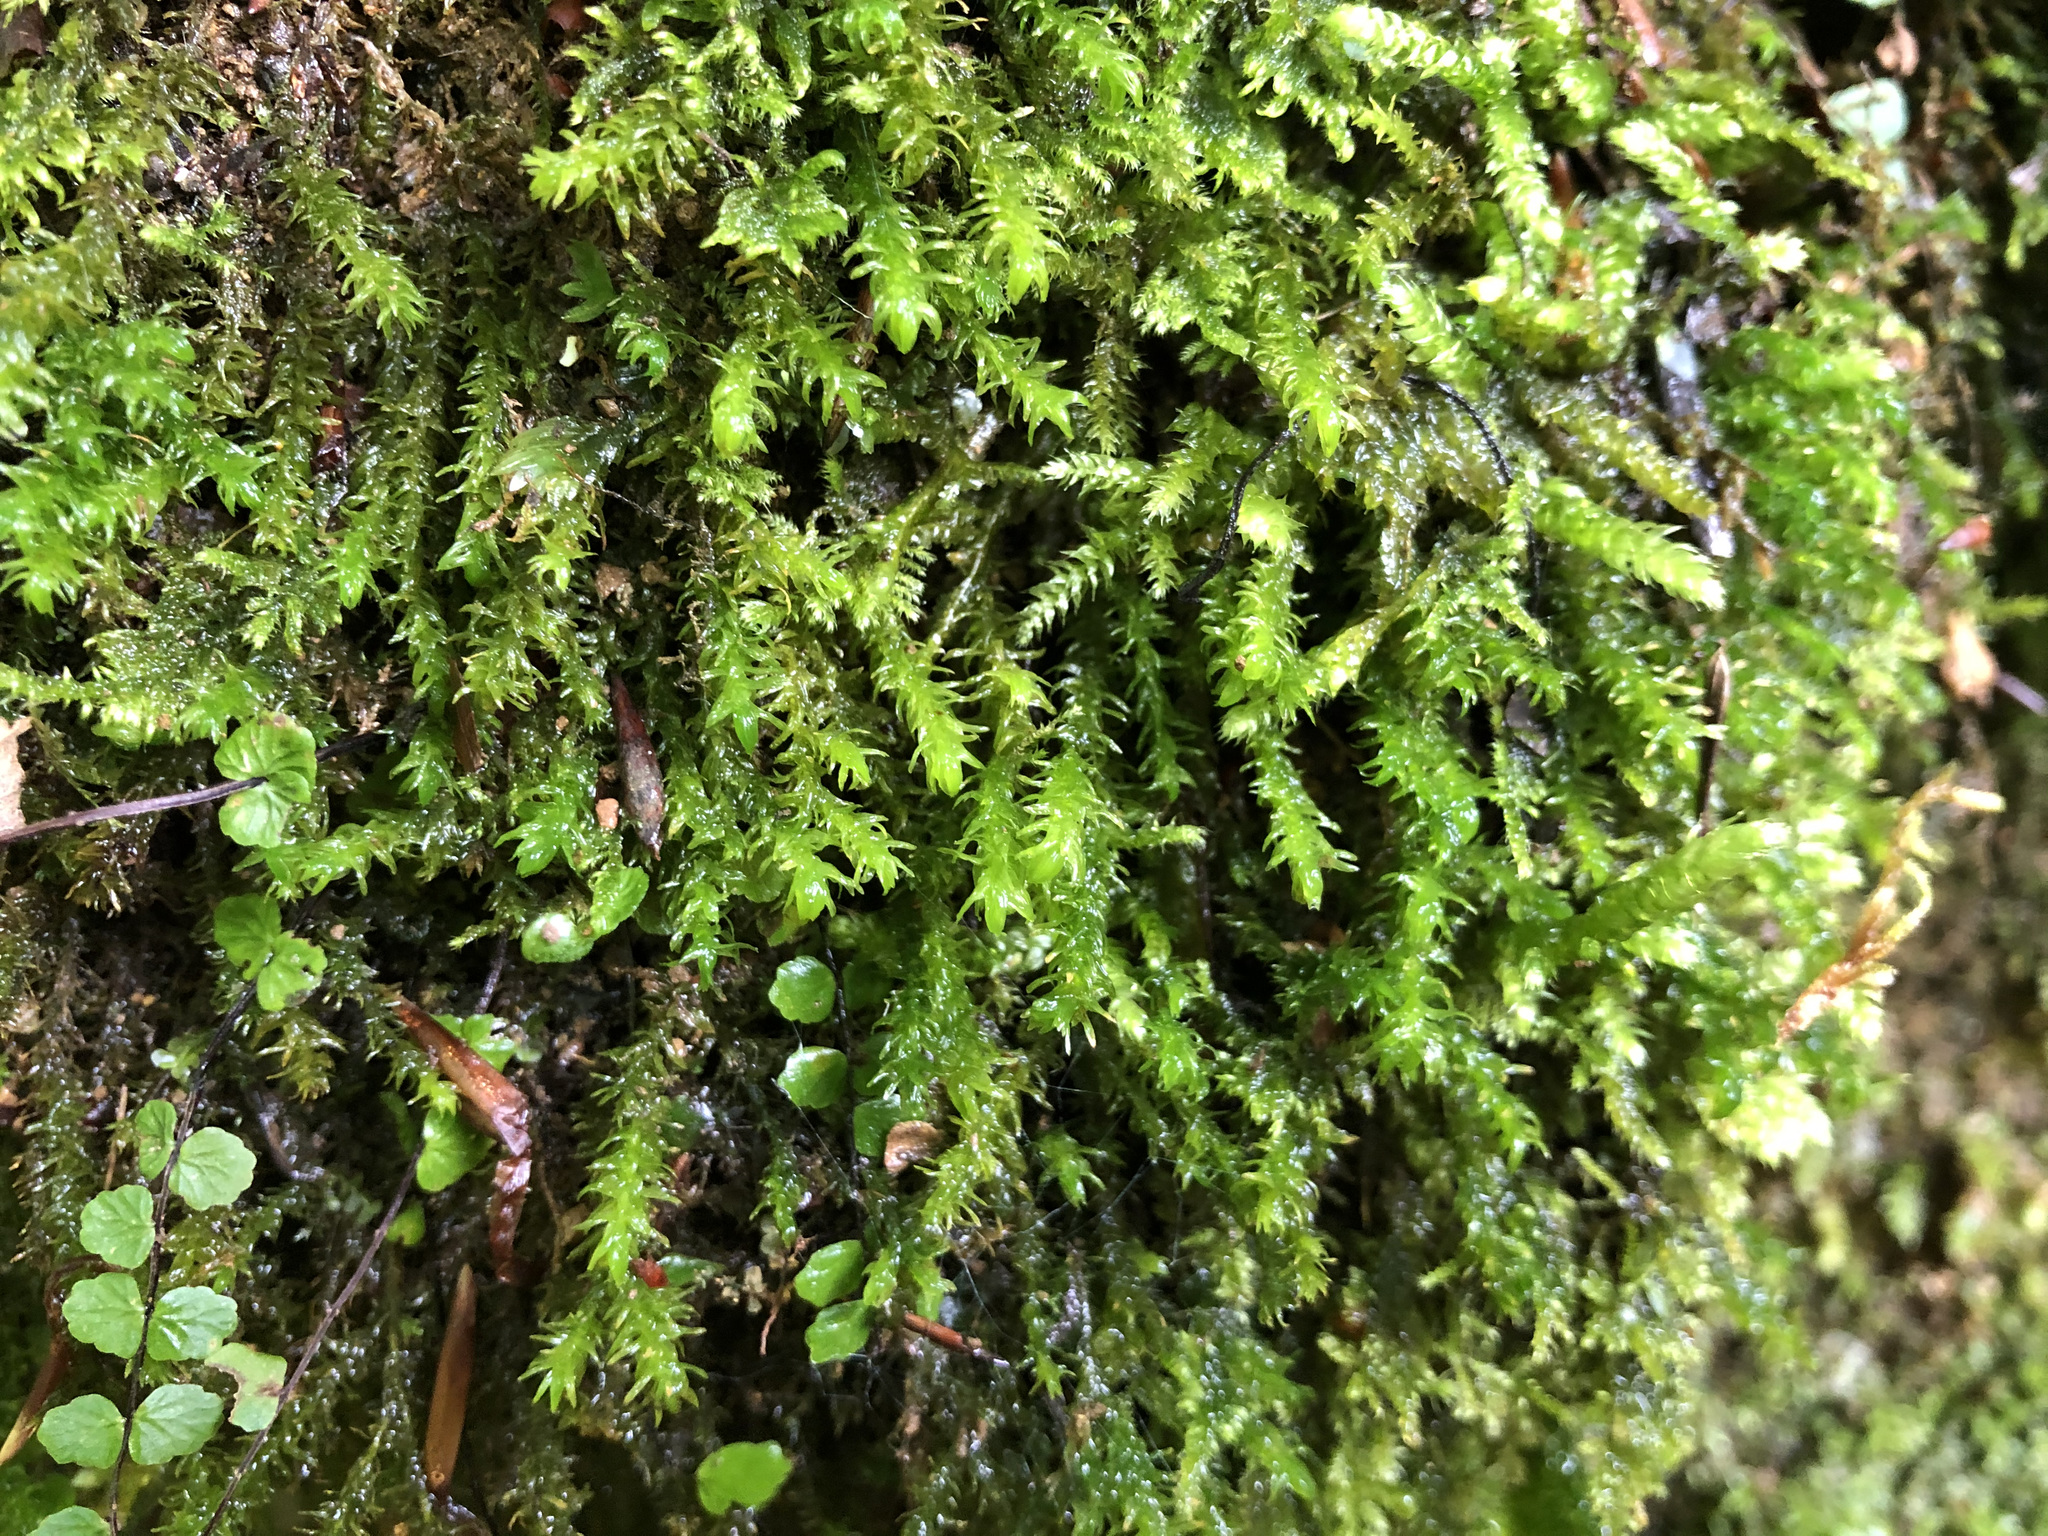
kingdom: Plantae
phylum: Bryophyta
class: Bryopsida
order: Hypnales
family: Anomodontaceae
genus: Anomodon
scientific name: Anomodon viticulosus
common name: Tall anomodon
